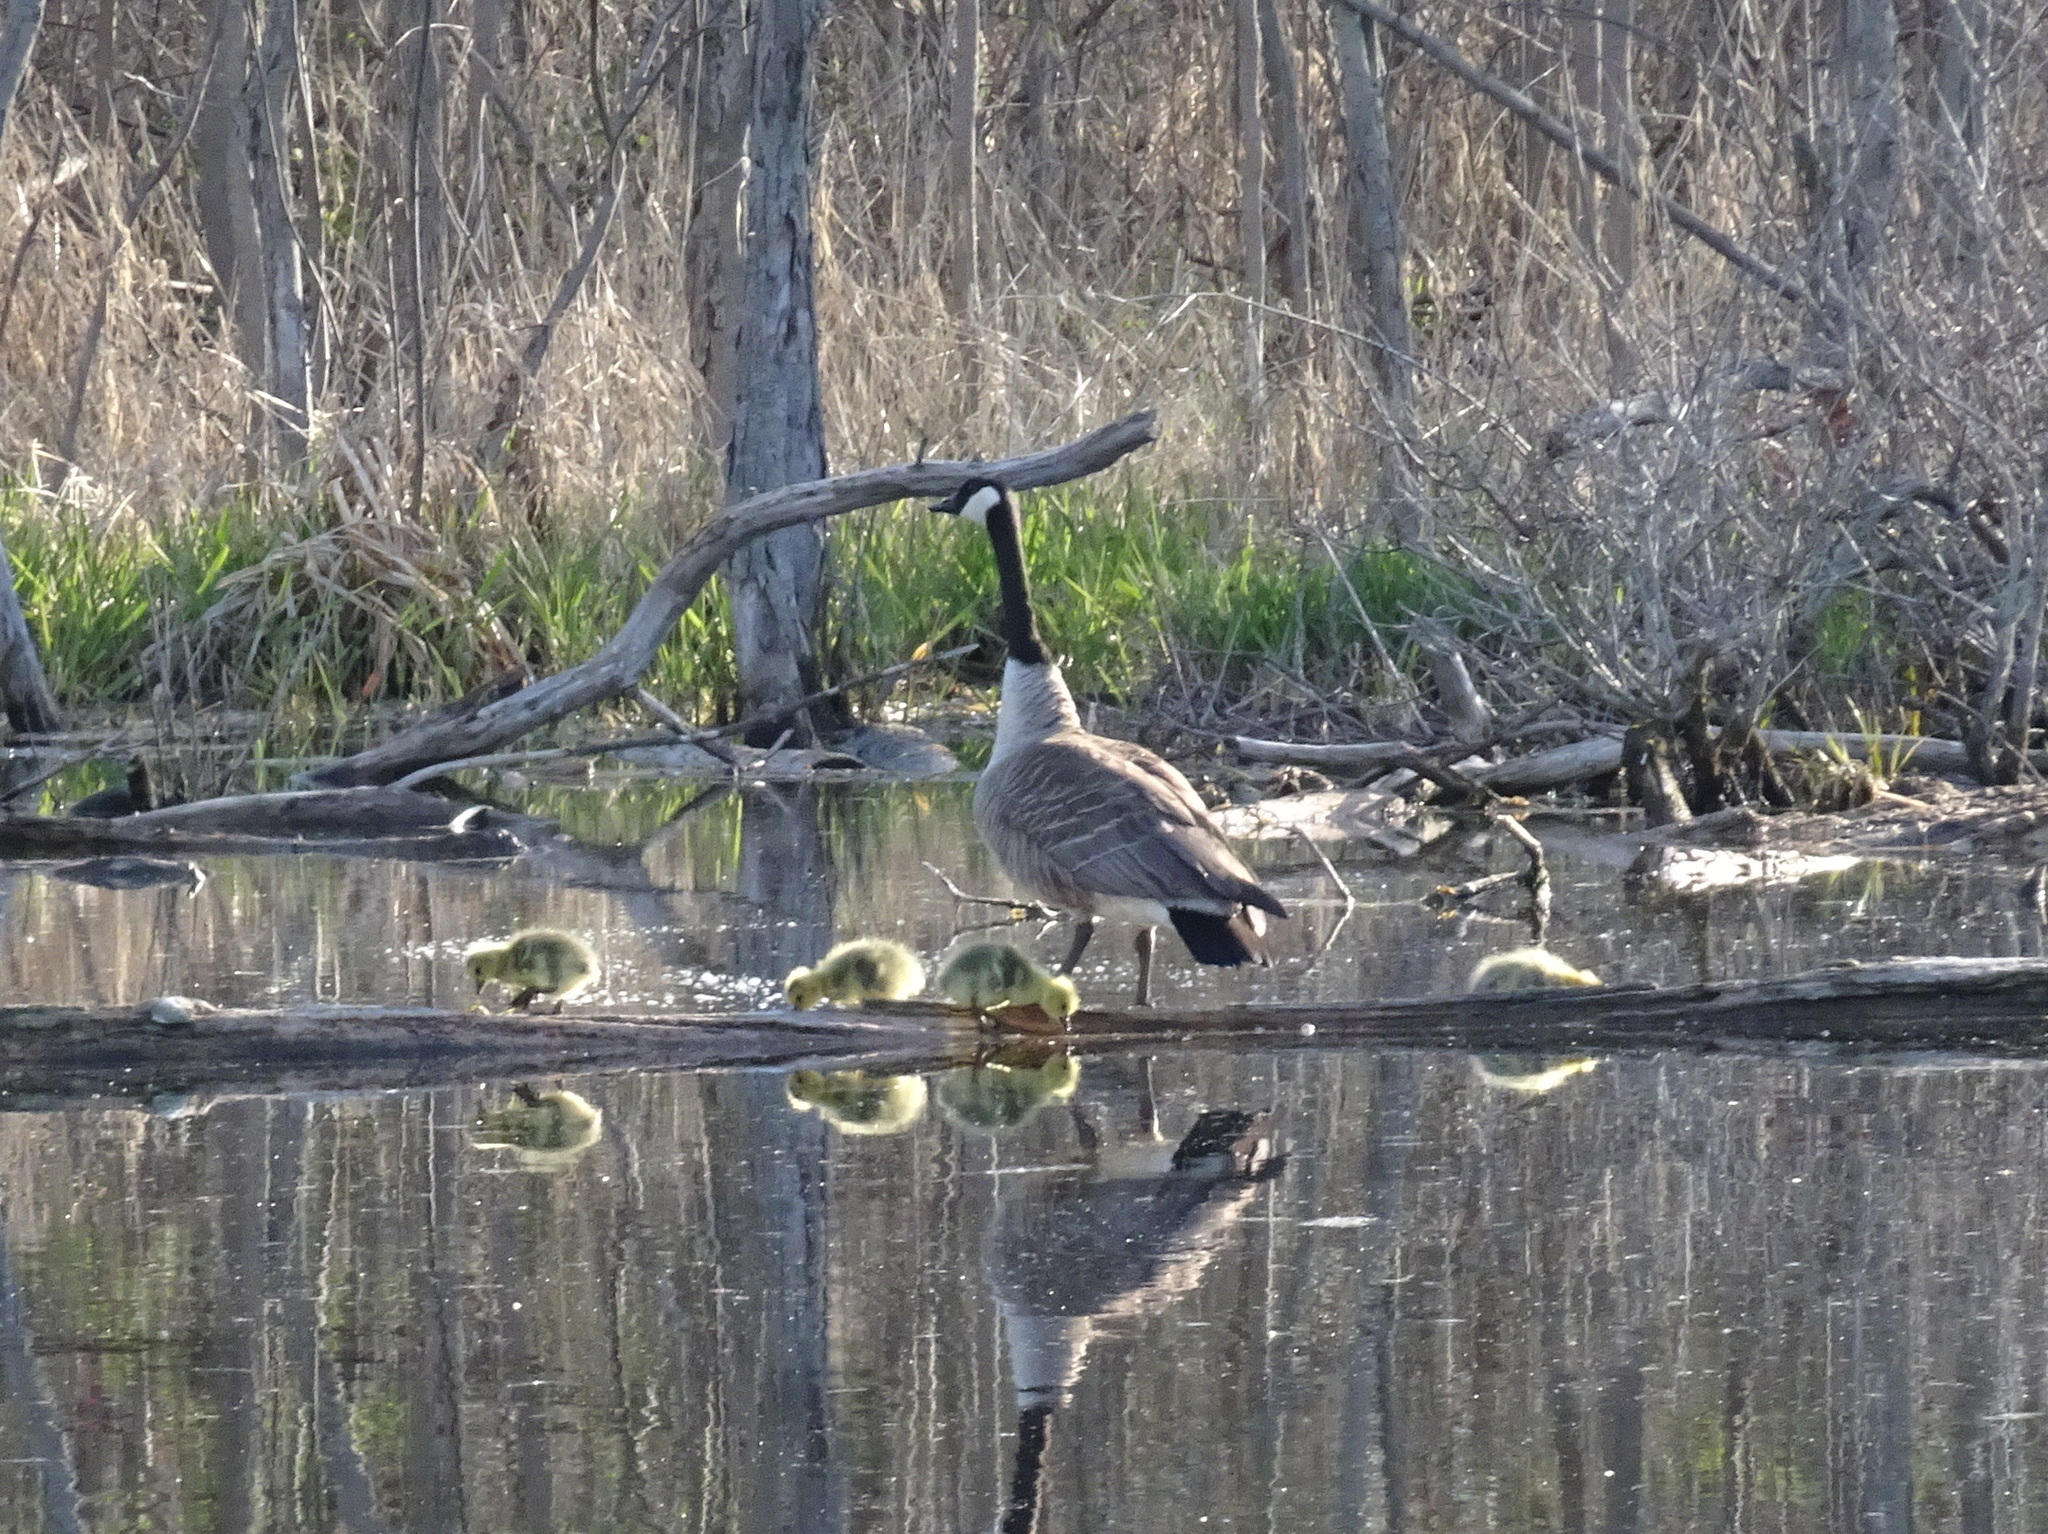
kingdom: Animalia
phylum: Chordata
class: Aves
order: Anseriformes
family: Anatidae
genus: Branta
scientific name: Branta canadensis
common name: Canada goose
